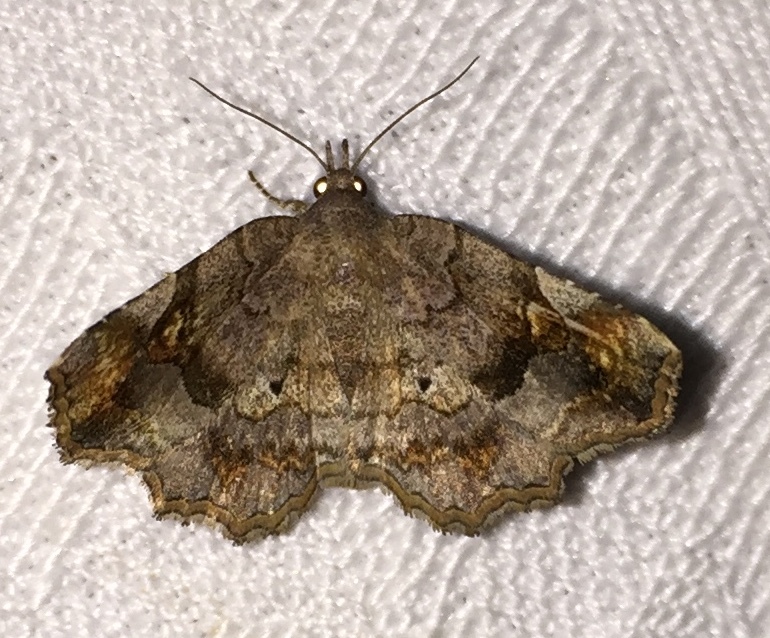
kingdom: Animalia
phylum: Arthropoda
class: Insecta
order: Lepidoptera
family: Erebidae
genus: Pangrapta
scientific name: Pangrapta decoralis
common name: Decorated owlet
